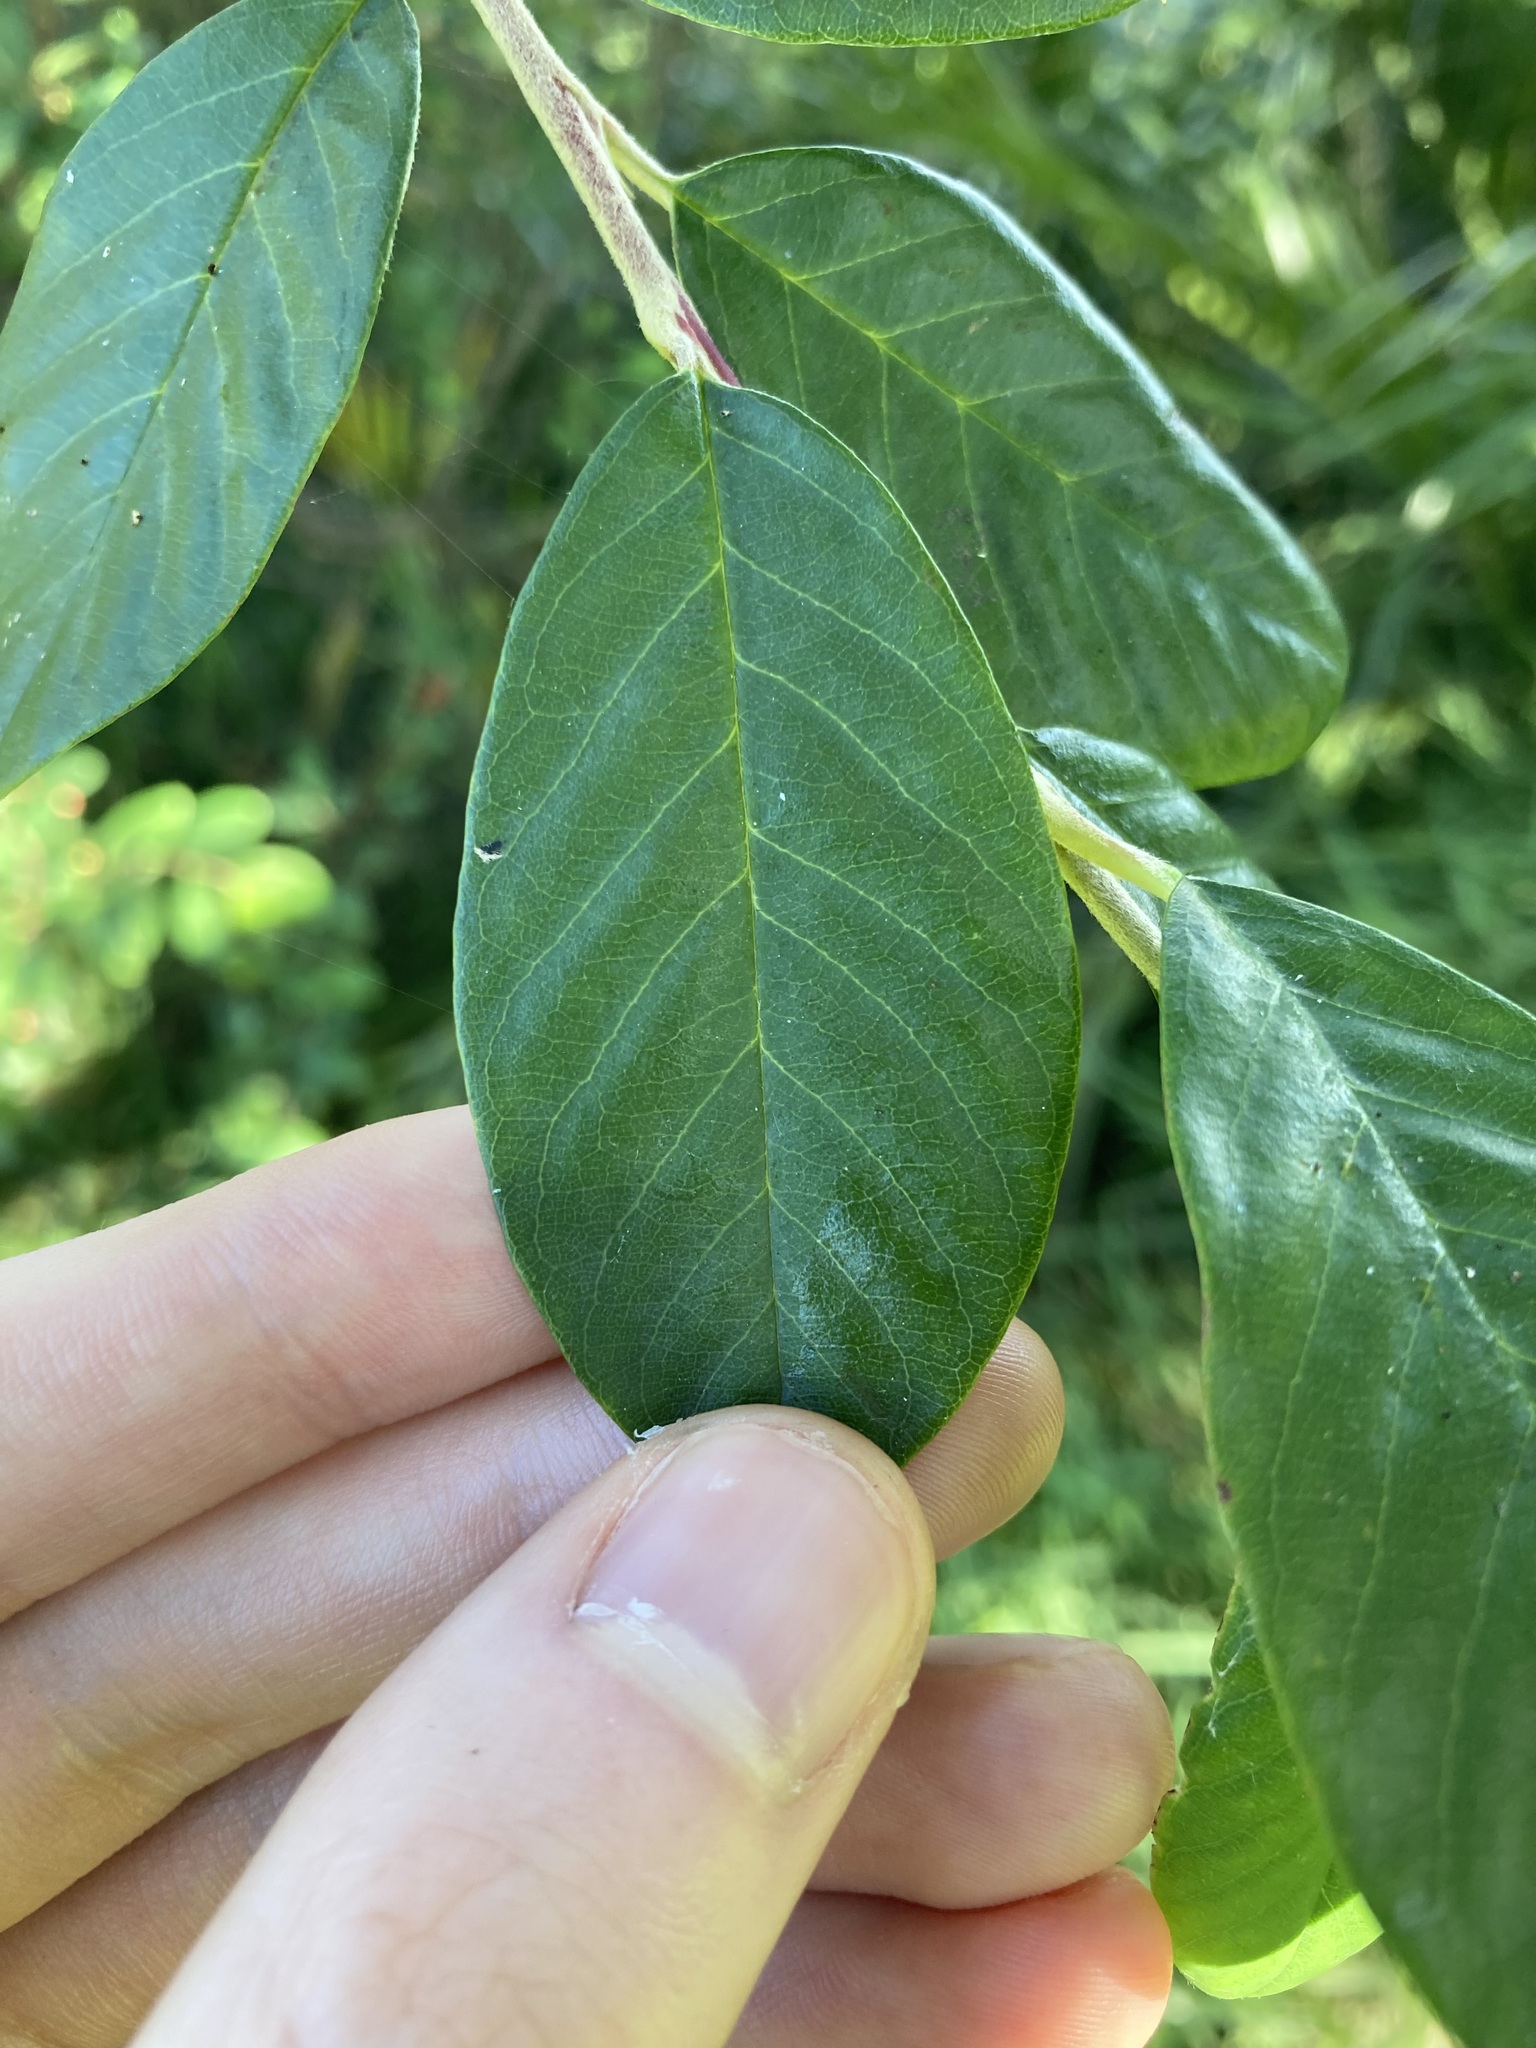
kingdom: Plantae
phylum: Tracheophyta
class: Magnoliopsida
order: Rosales
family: Rosaceae
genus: Cotoneaster
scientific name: Cotoneaster glaucophyllus
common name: Glaucous cotoneaster
